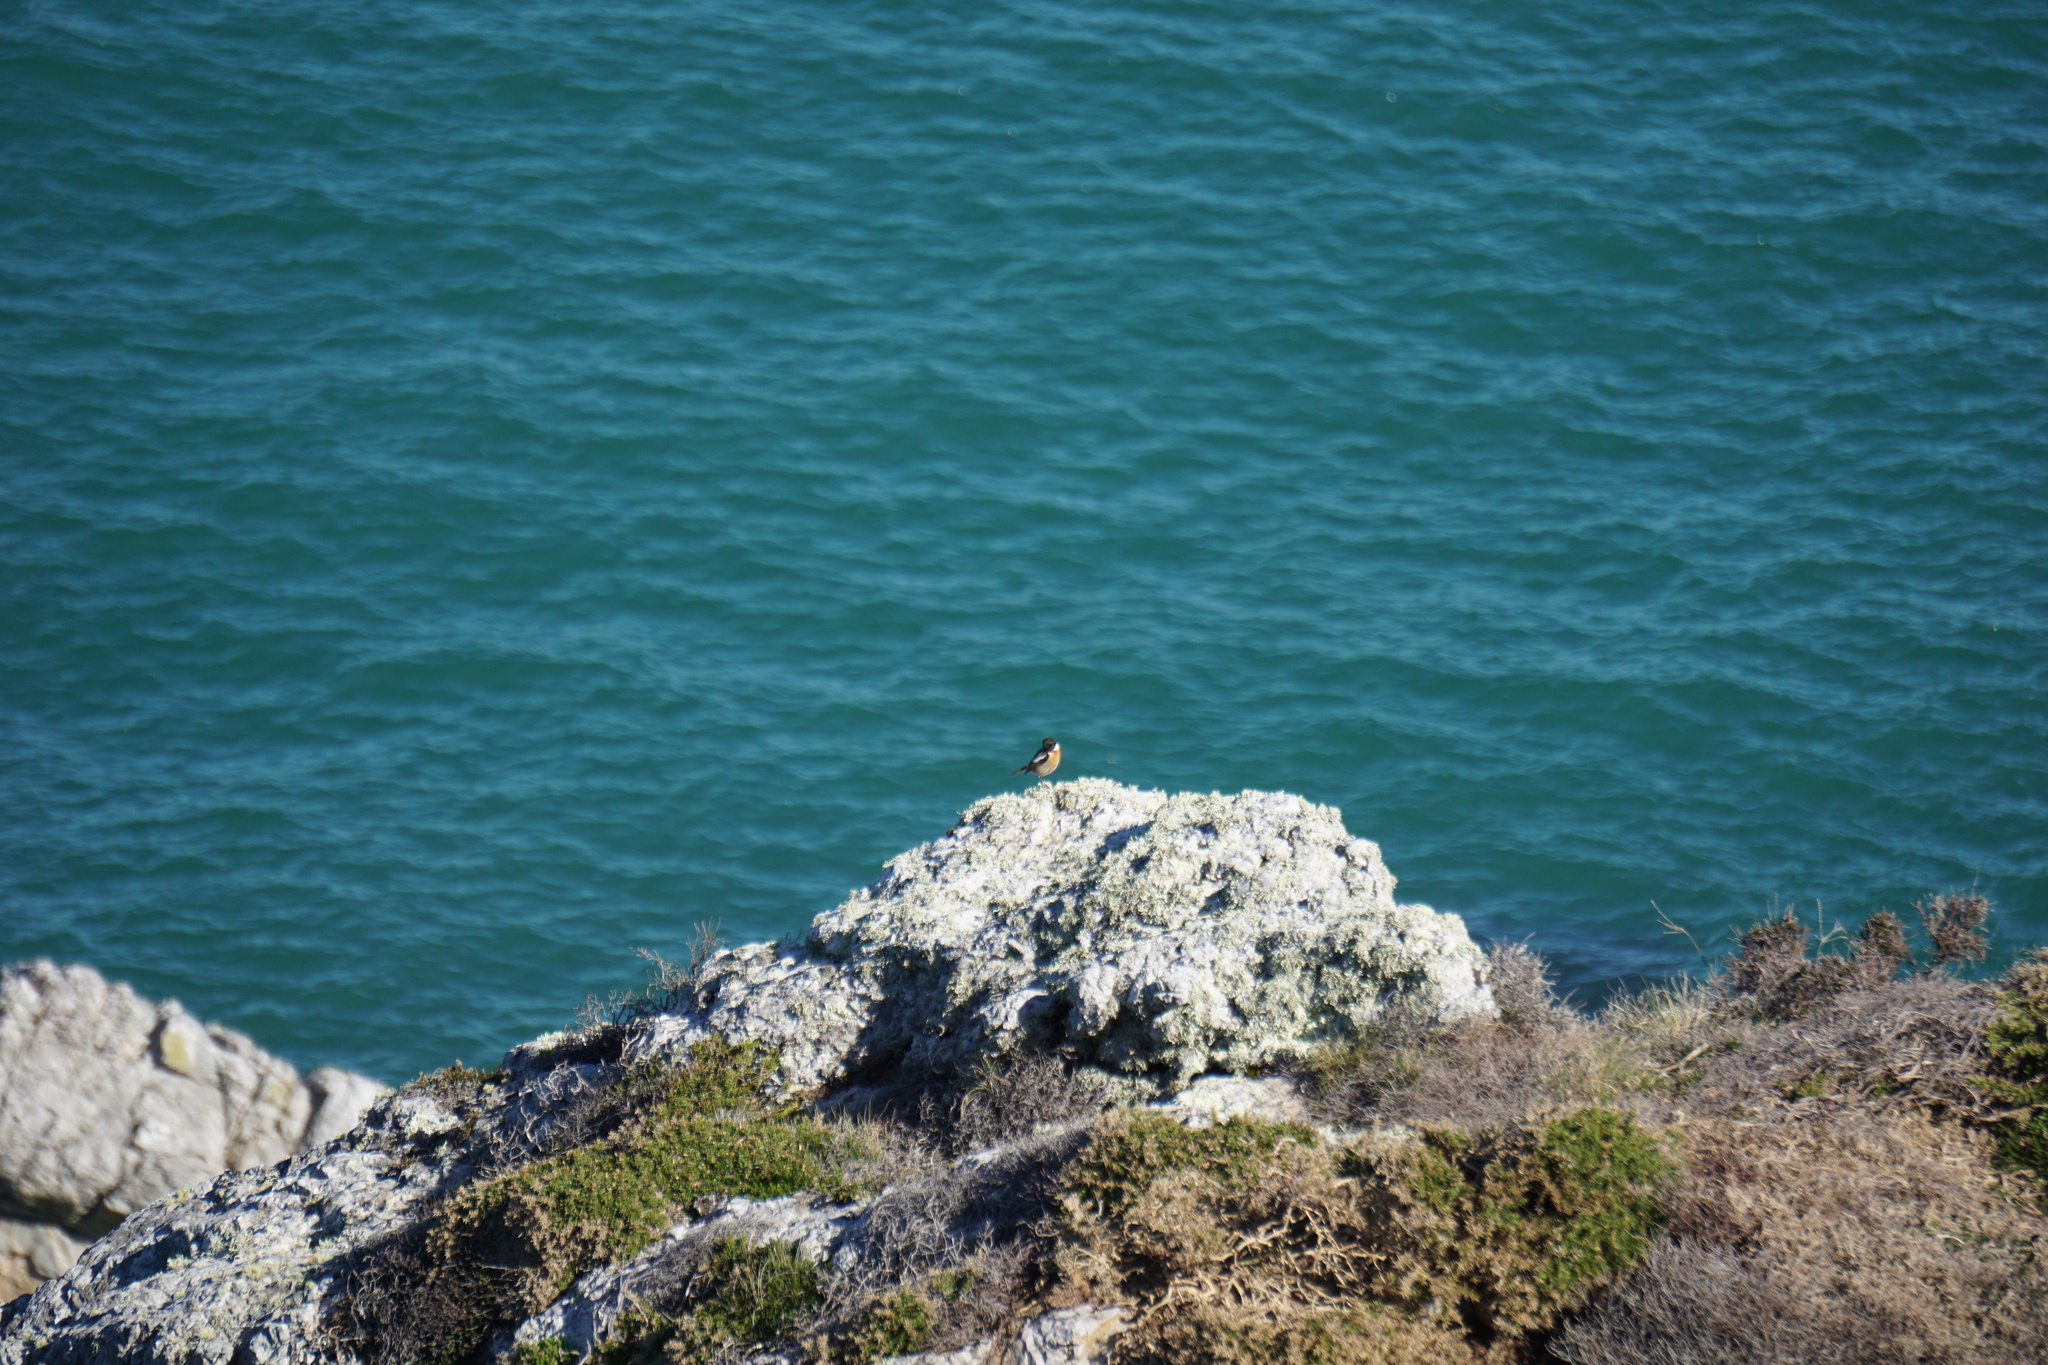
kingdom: Animalia
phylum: Chordata
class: Aves
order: Passeriformes
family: Muscicapidae
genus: Saxicola
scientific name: Saxicola rubicola
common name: European stonechat
